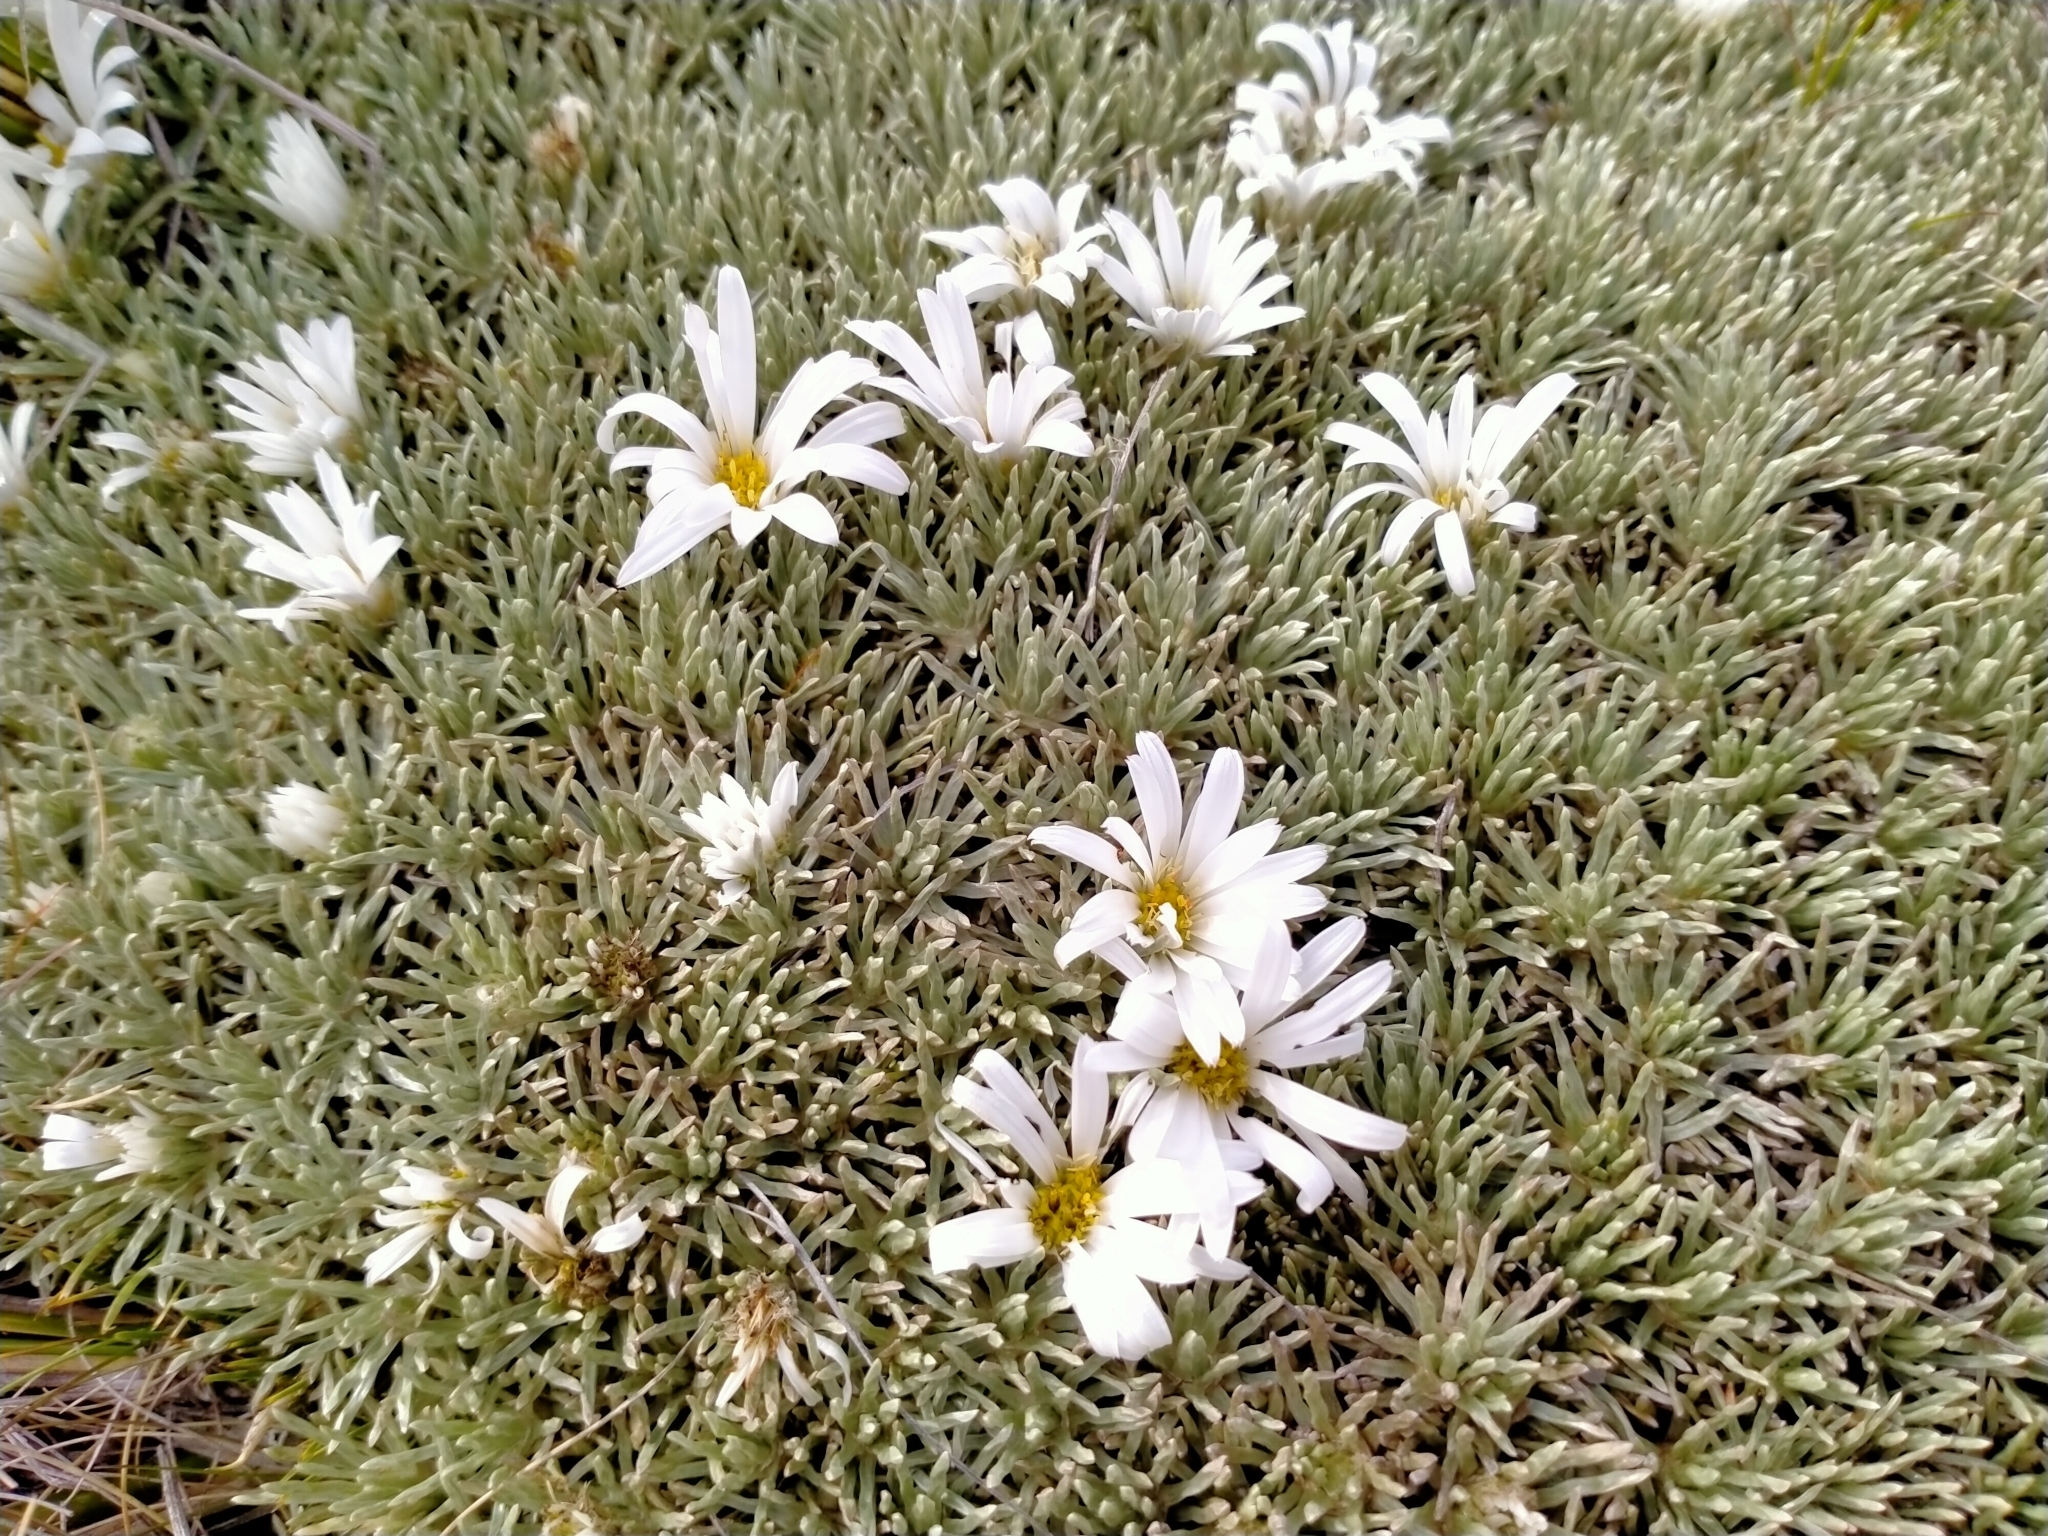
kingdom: Plantae
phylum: Tracheophyta
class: Magnoliopsida
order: Asterales
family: Asteraceae
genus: Celmisia
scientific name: Celmisia sessiliflora
